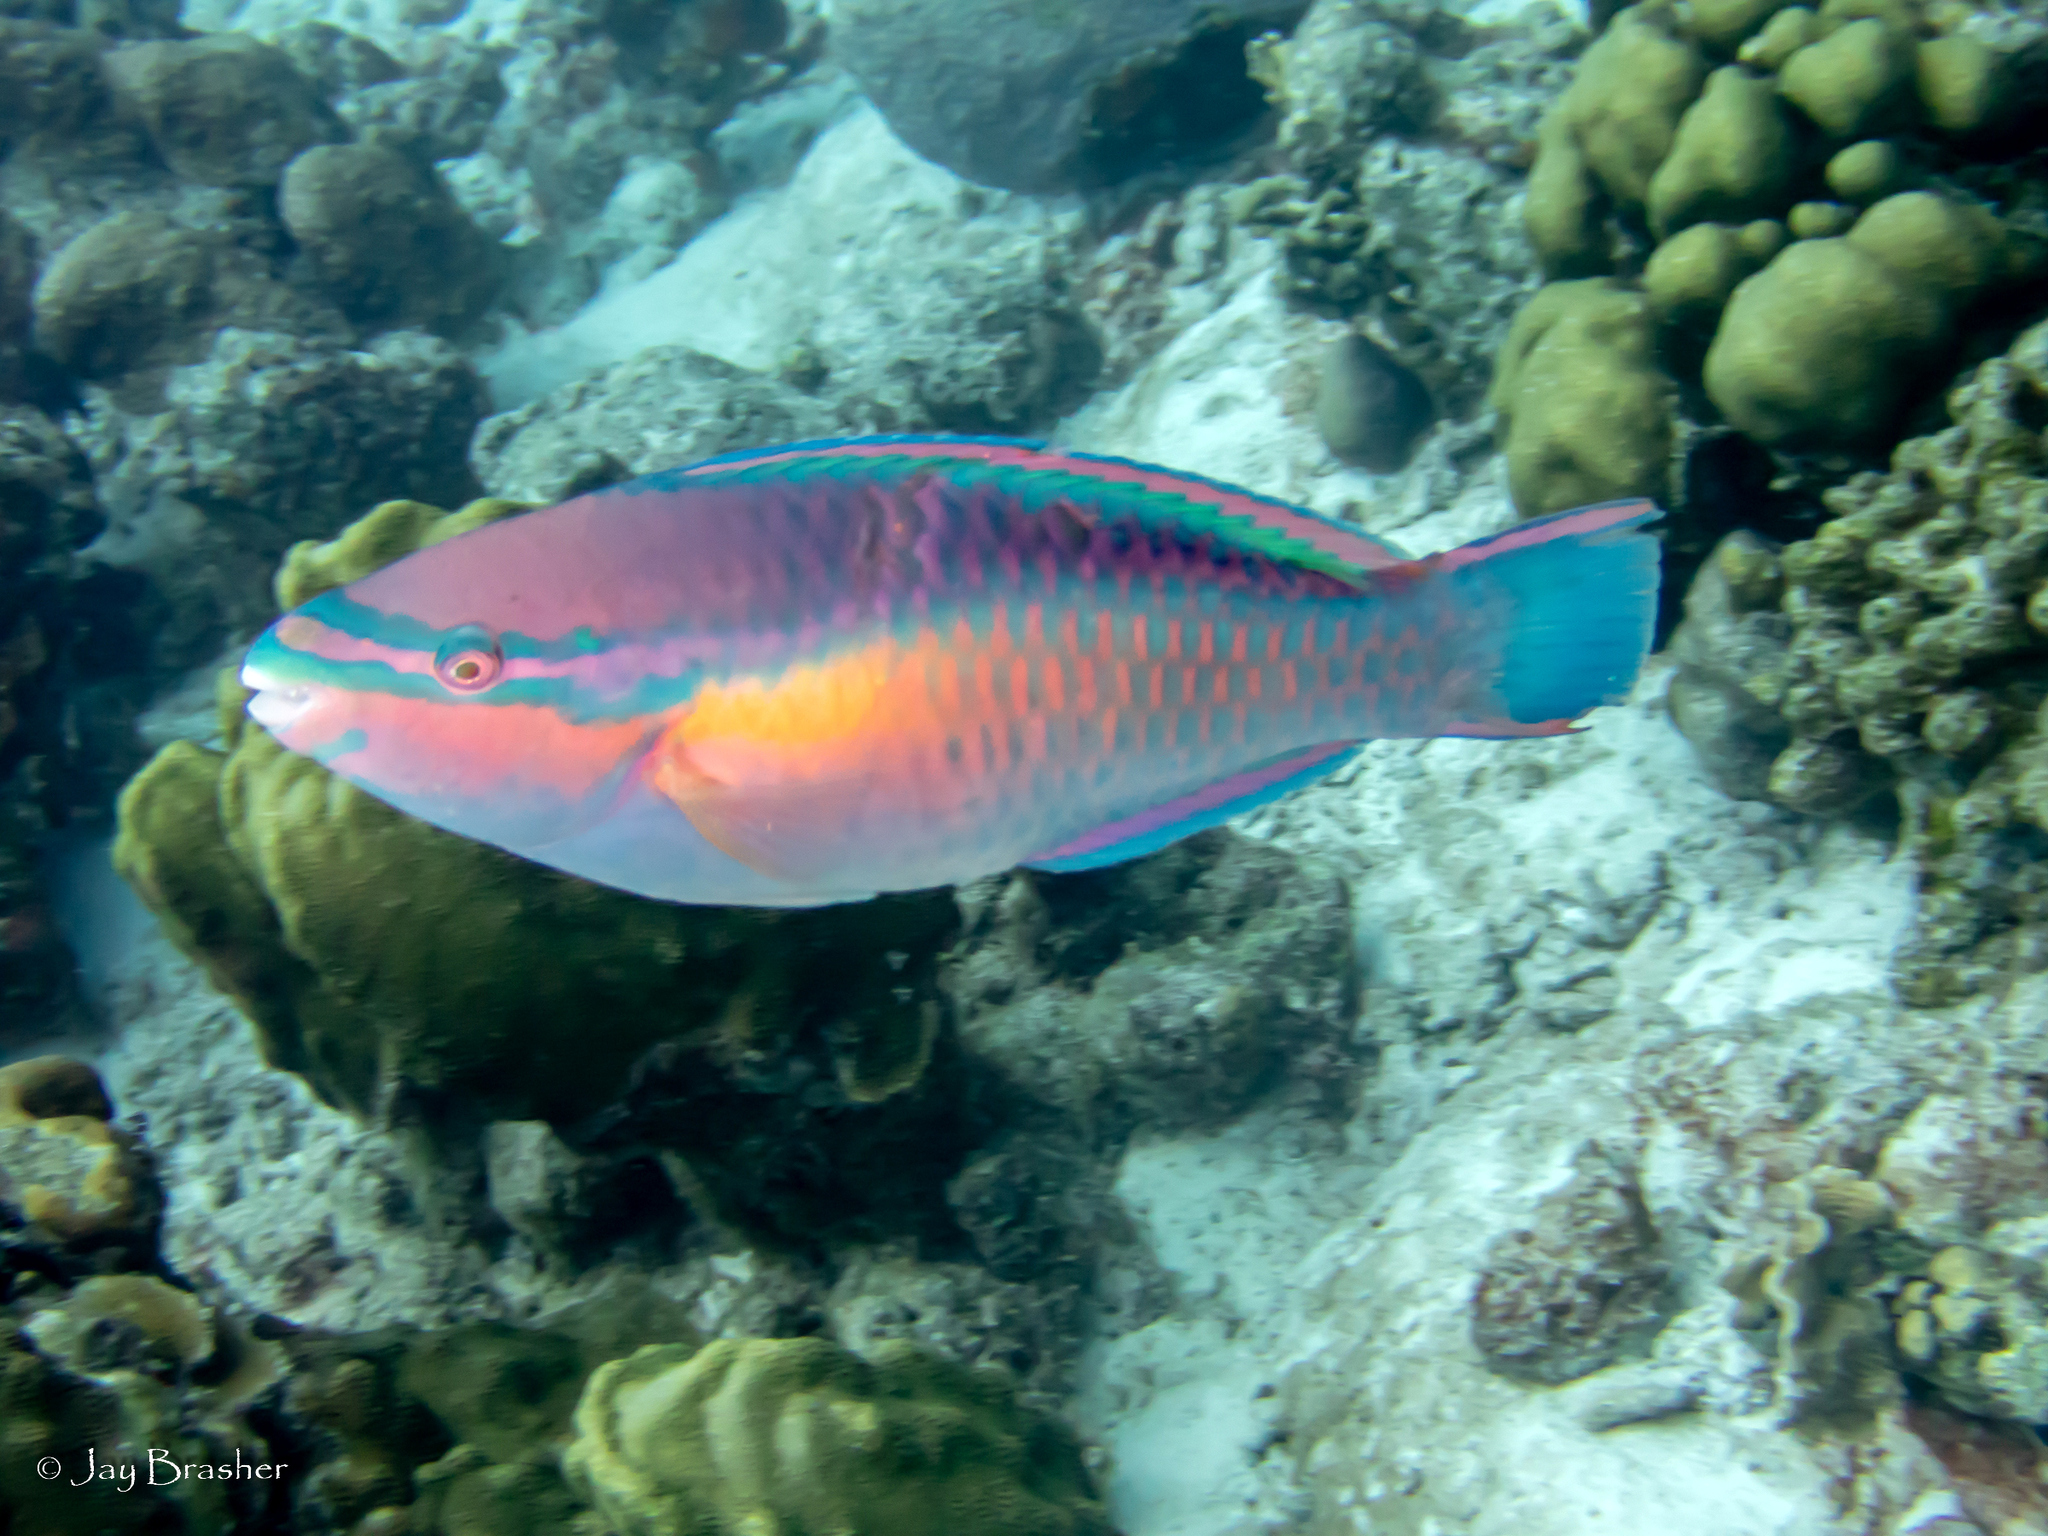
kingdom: Animalia
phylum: Chordata
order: Perciformes
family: Scaridae
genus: Scarus
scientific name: Scarus taeniopterus
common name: Princess parrotfish
